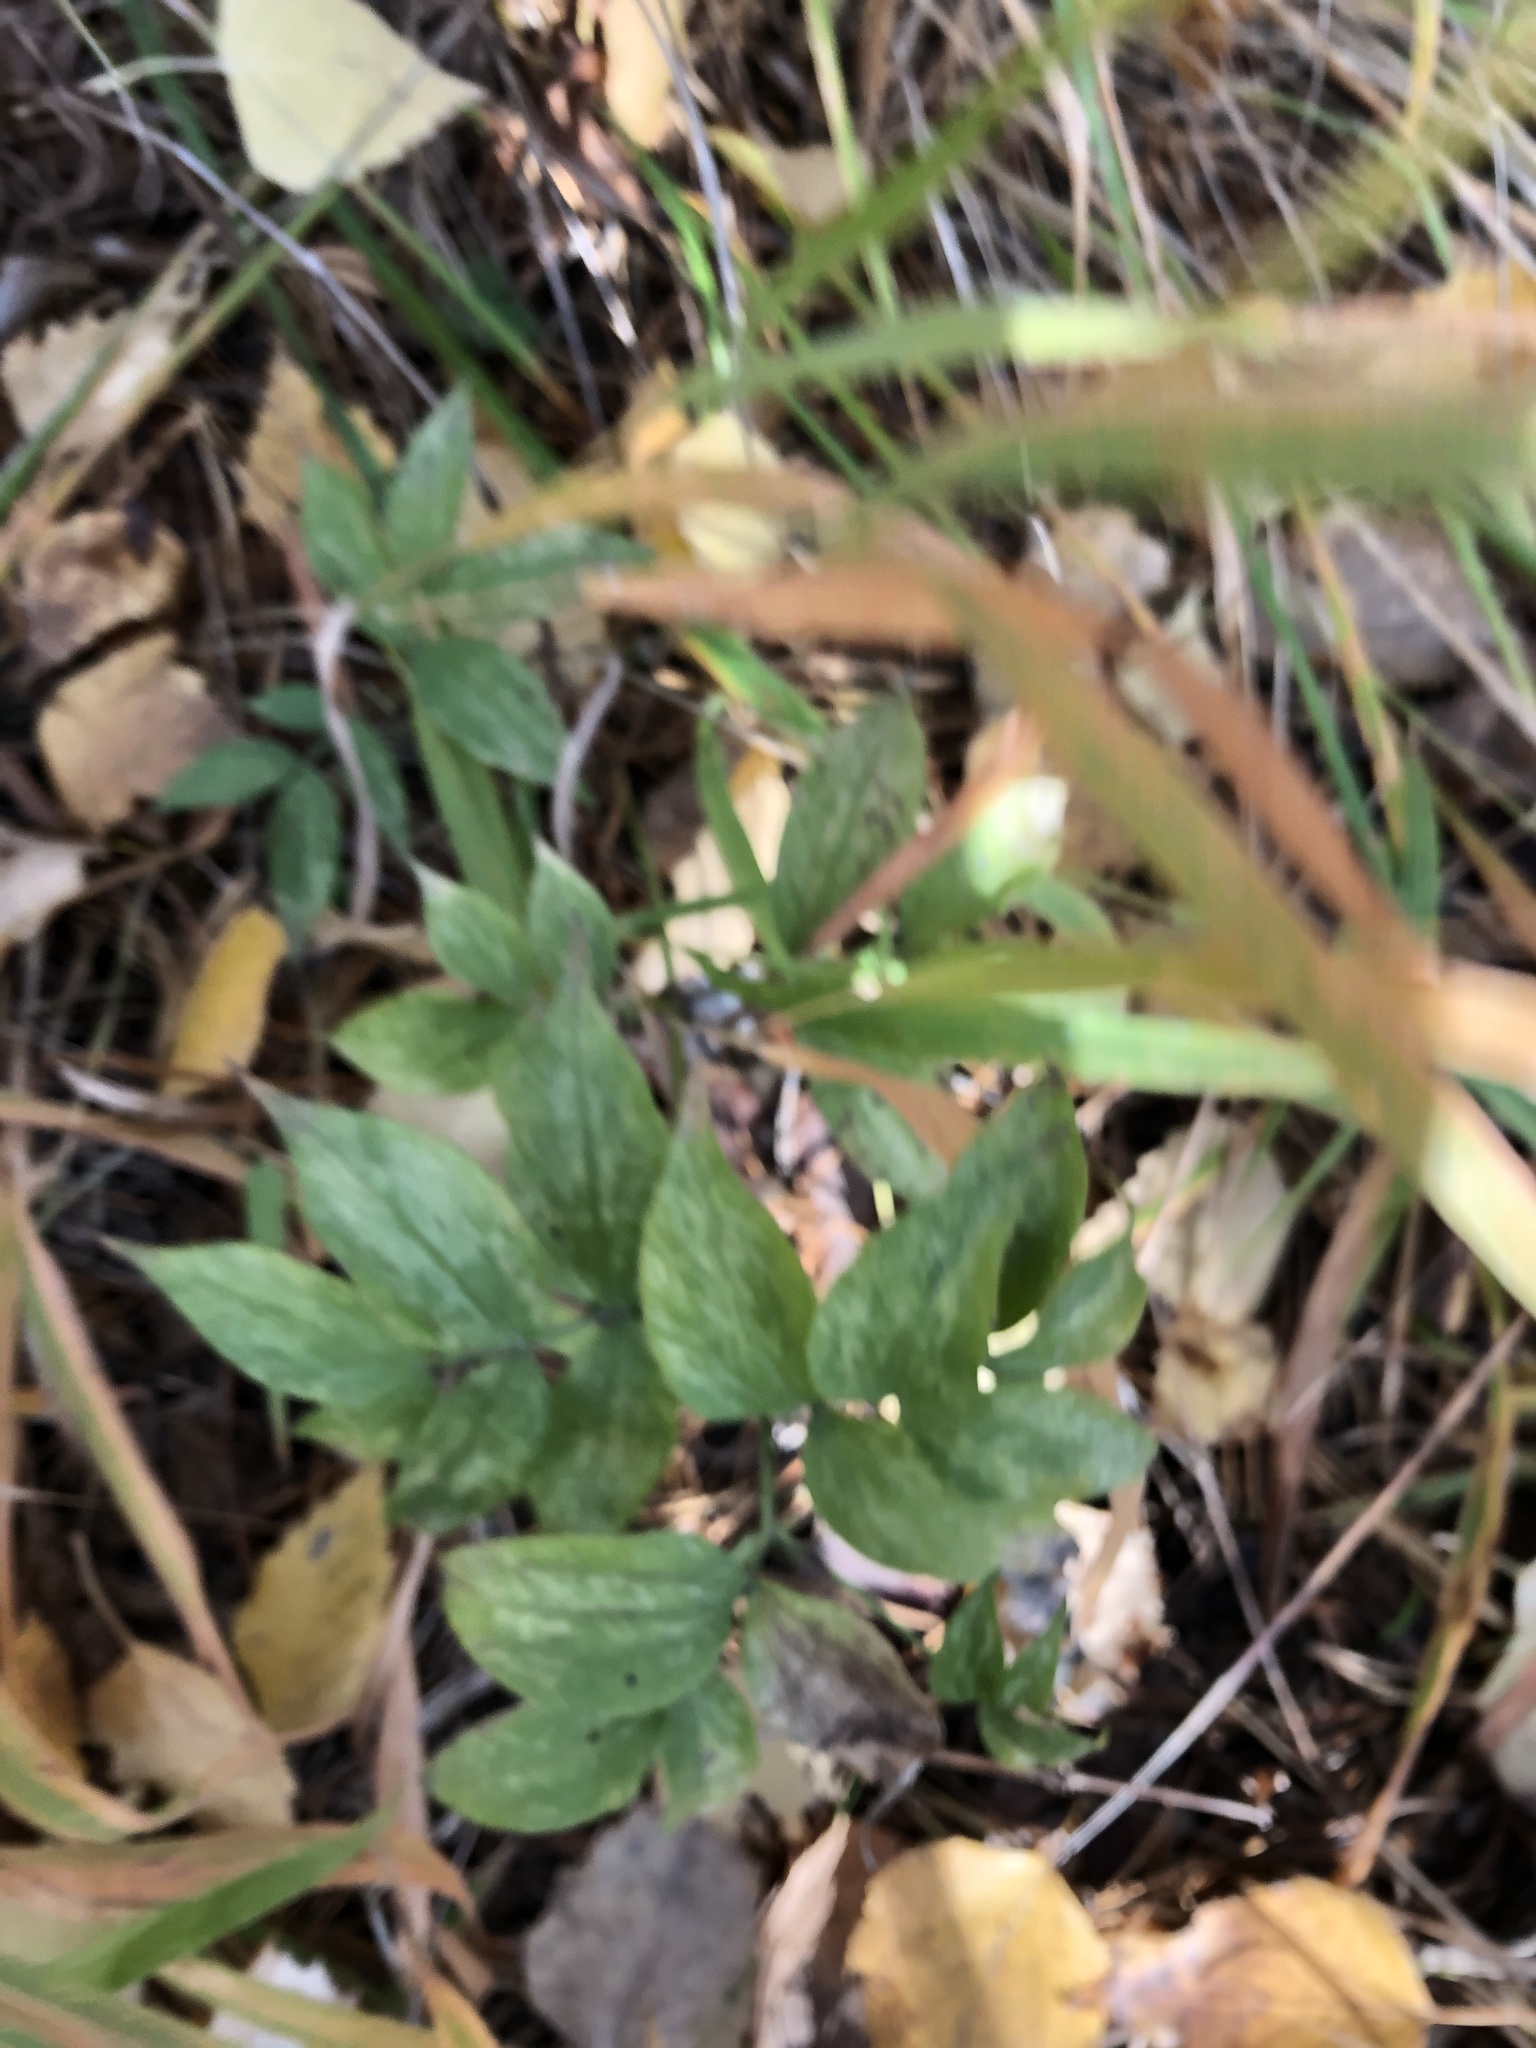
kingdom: Plantae
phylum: Tracheophyta
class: Magnoliopsida
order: Fabales
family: Fabaceae
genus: Lathyrus
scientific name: Lathyrus vernus
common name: Spring pea
